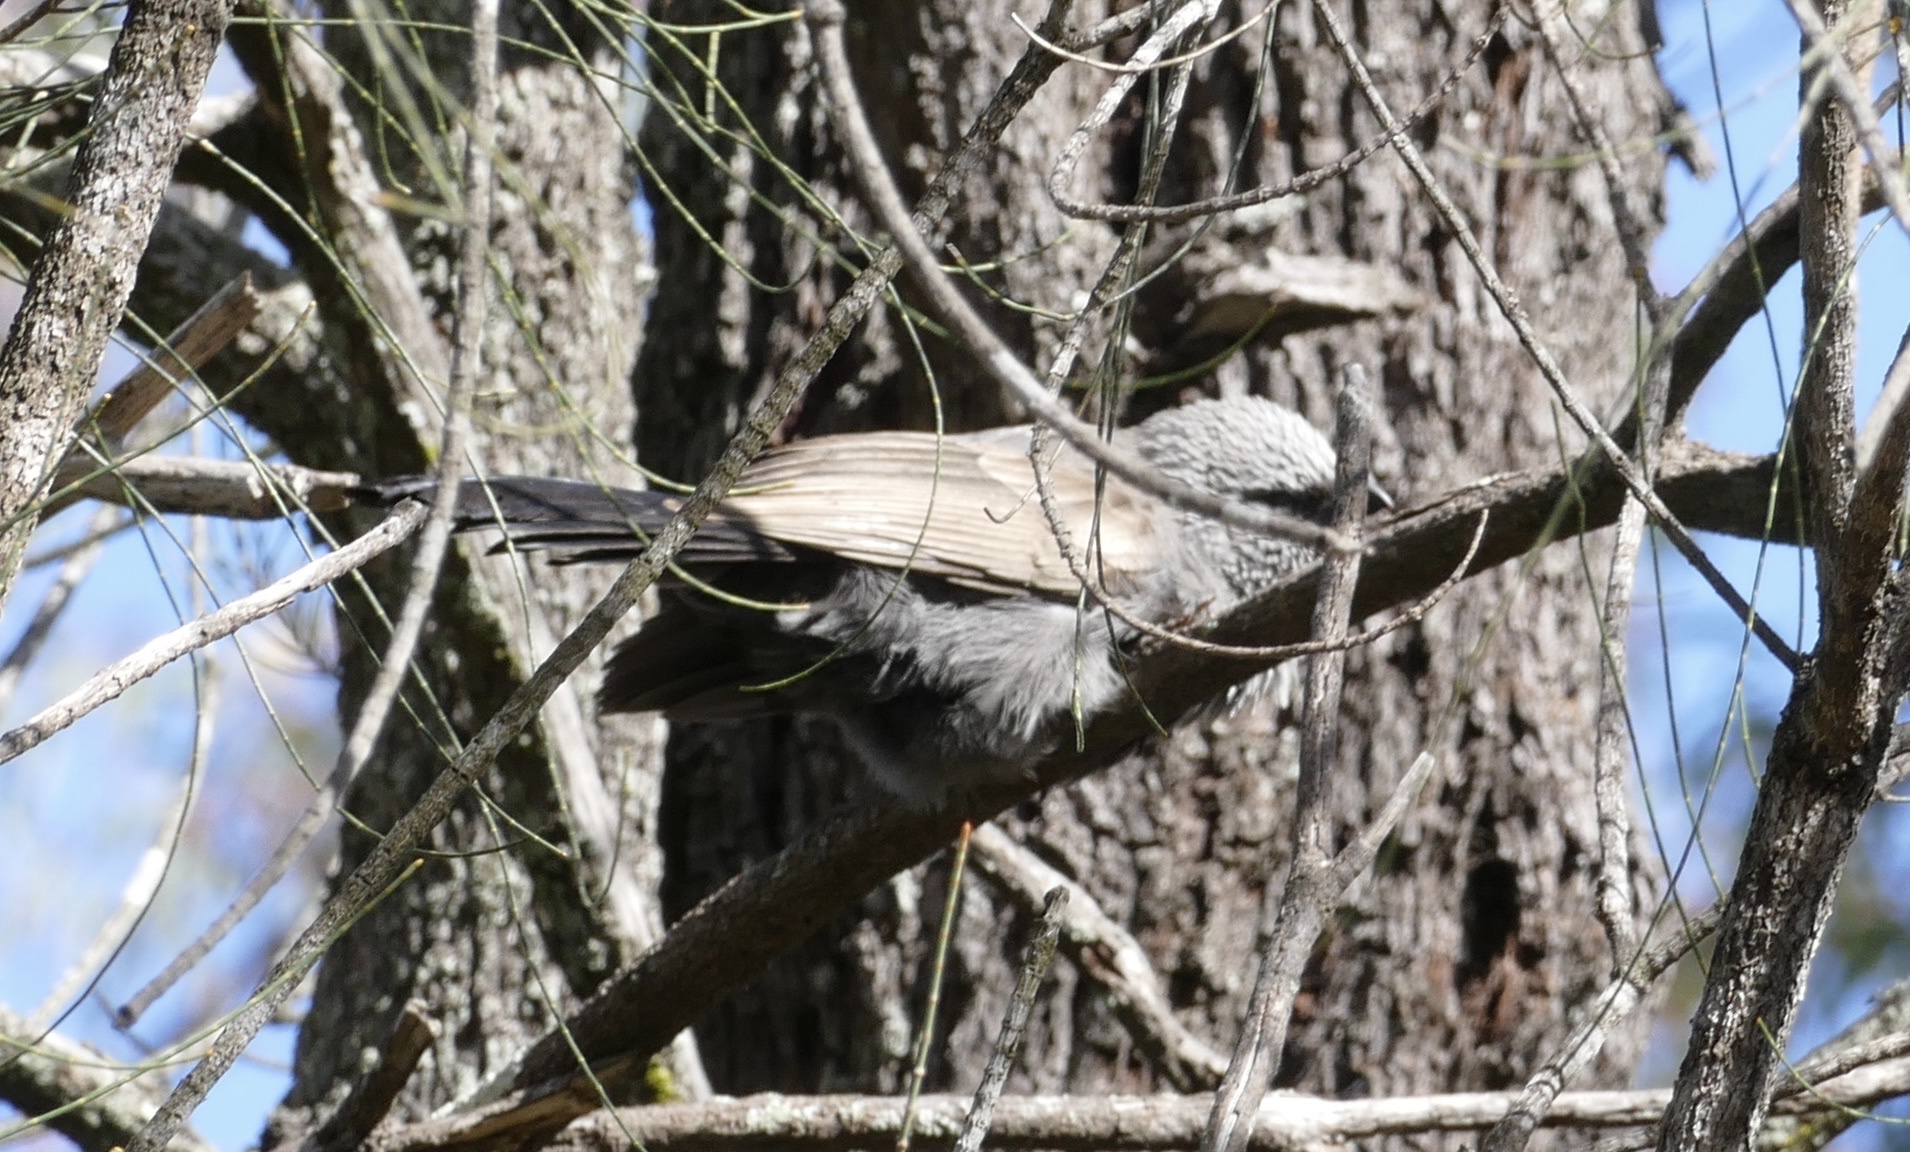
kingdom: Animalia
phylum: Chordata
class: Aves
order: Passeriformes
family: Corcoracidae
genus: Struthidea
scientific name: Struthidea cinerea
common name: Apostlebird
